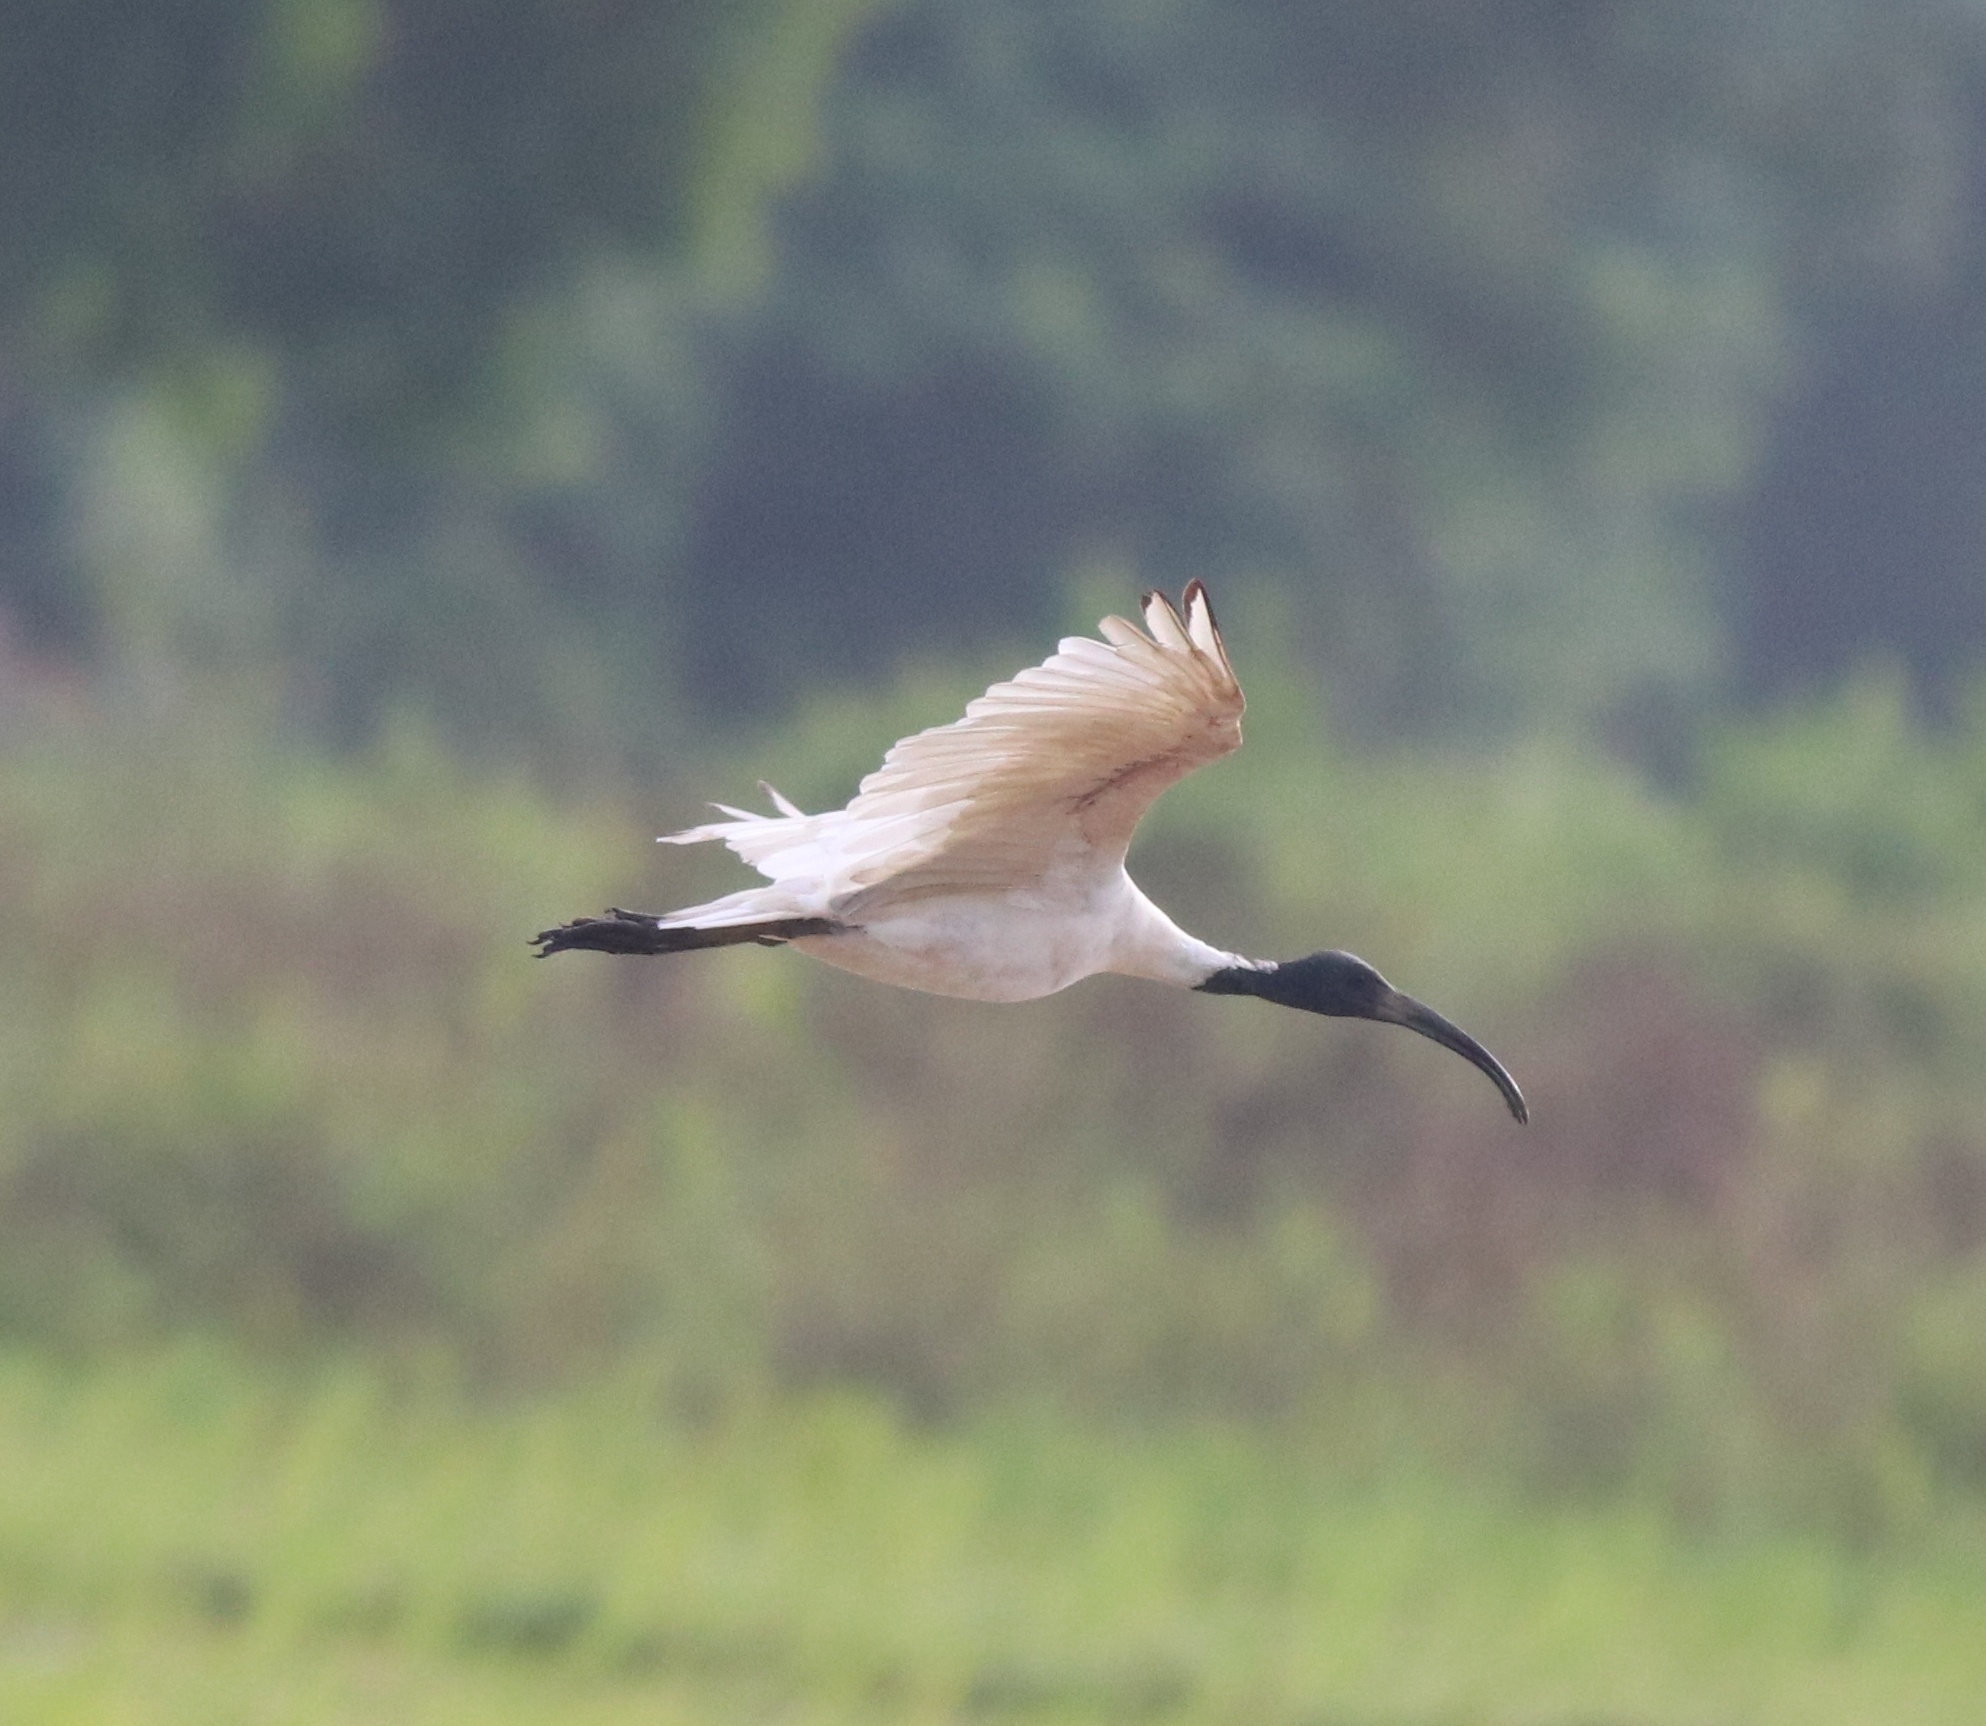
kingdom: Animalia
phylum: Chordata
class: Aves
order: Pelecaniformes
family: Threskiornithidae
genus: Threskiornis
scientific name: Threskiornis melanocephalus
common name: Black-headed ibis
